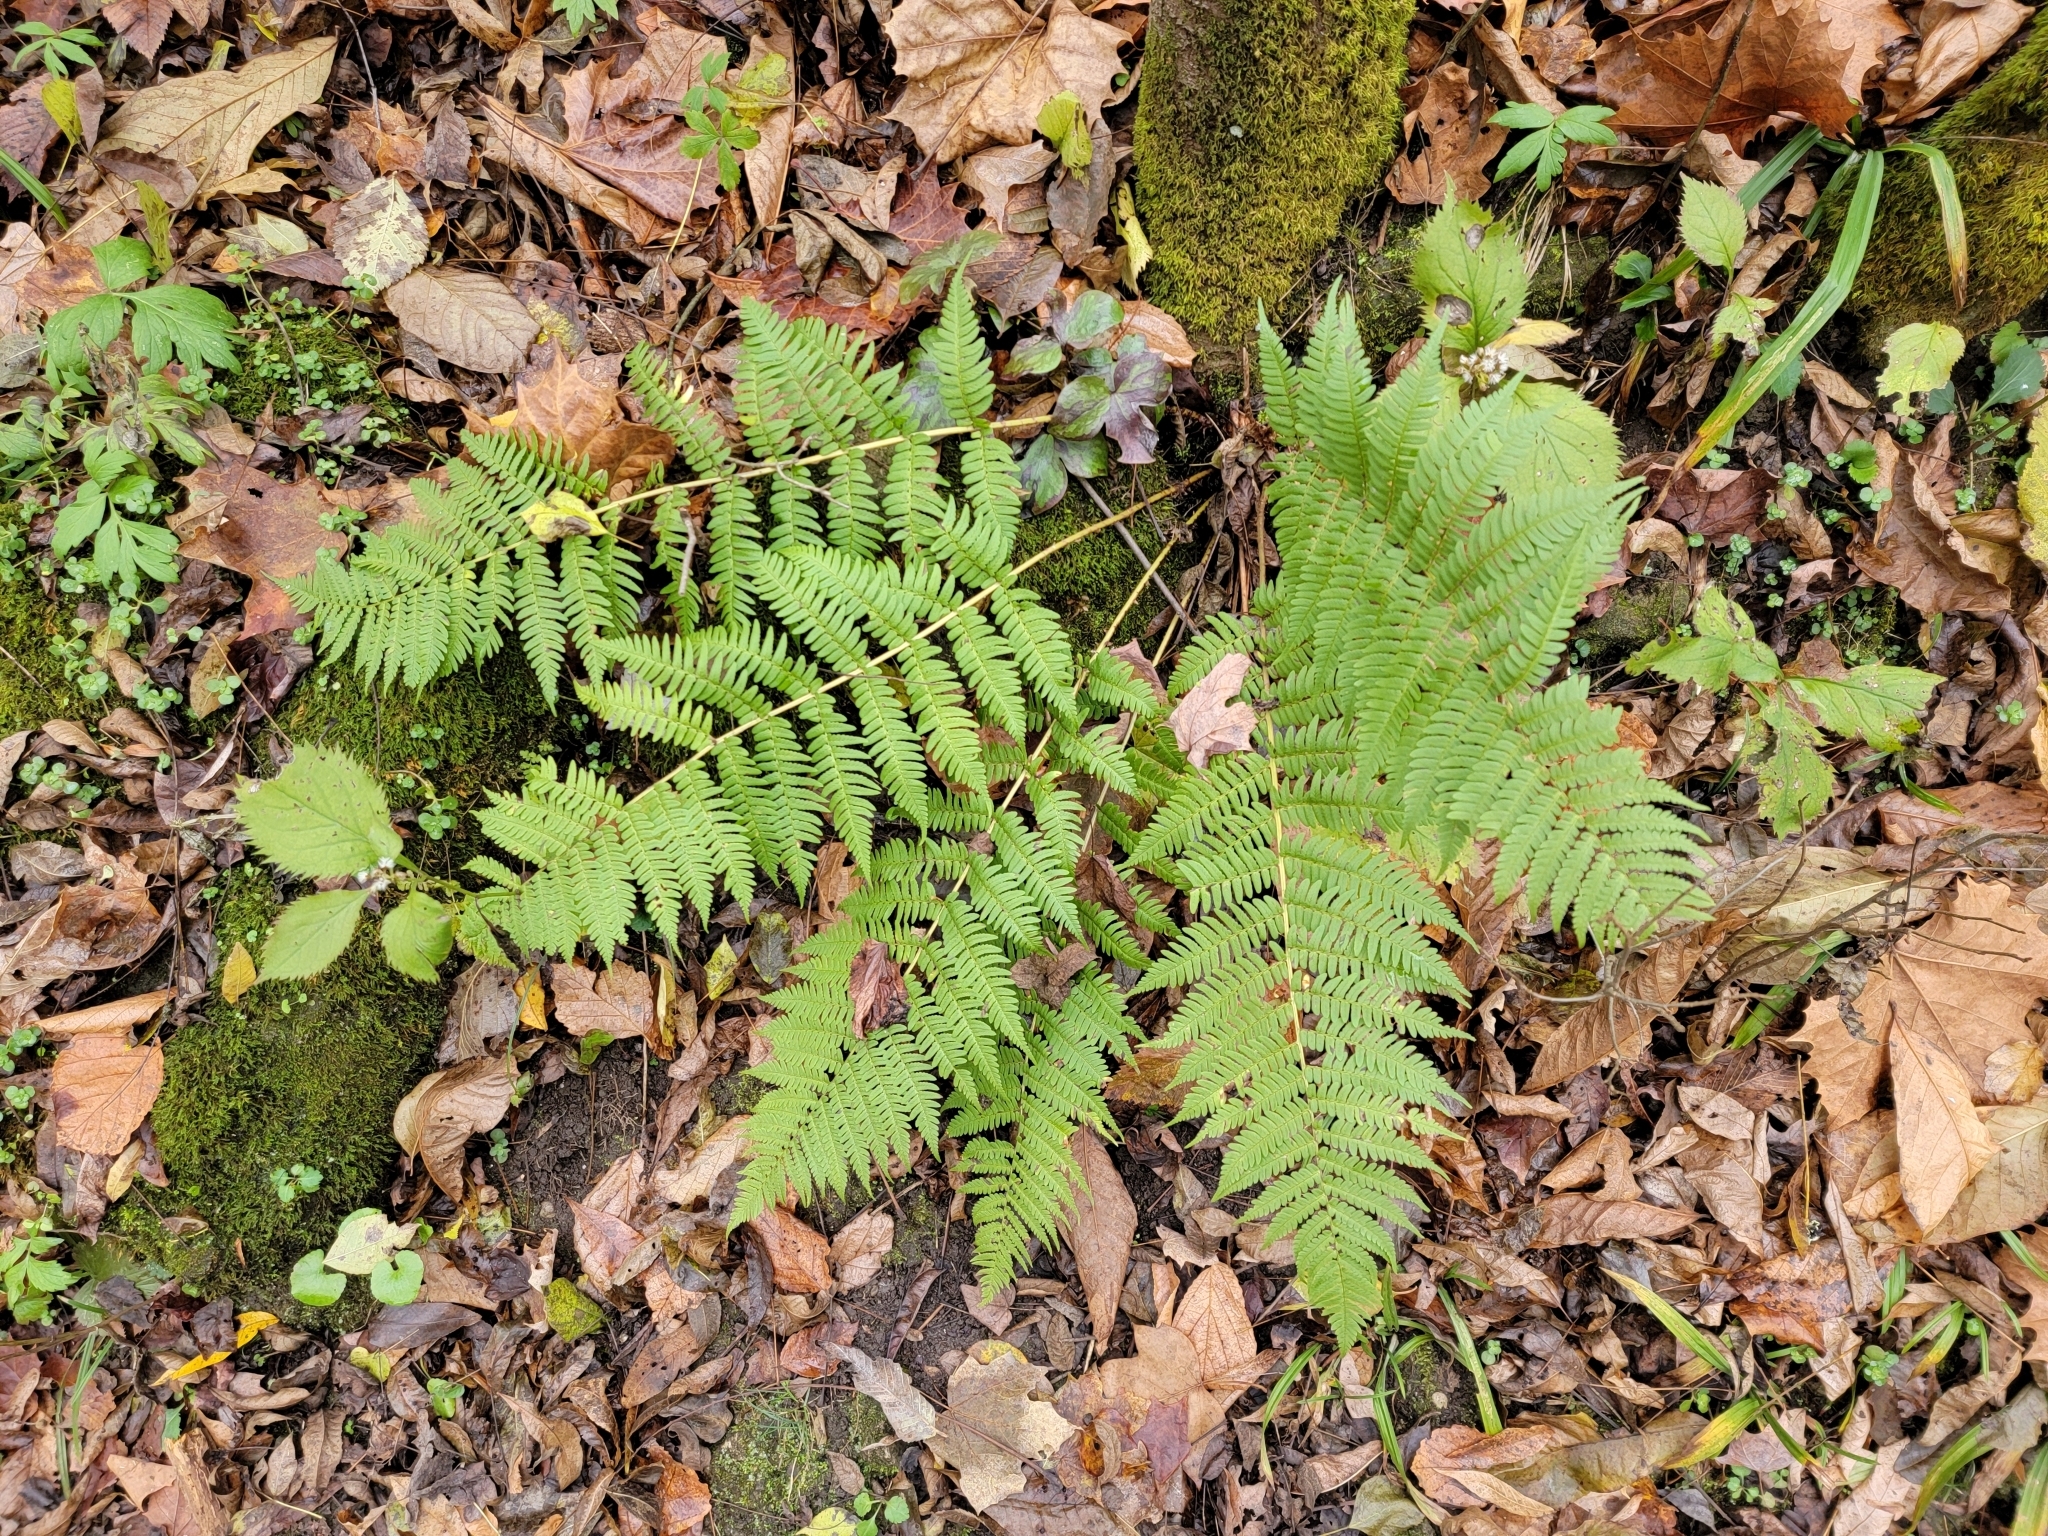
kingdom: Plantae
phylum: Tracheophyta
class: Polypodiopsida
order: Polypodiales
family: Dryopteridaceae
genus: Dryopteris
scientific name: Dryopteris marginalis
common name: Marginal wood fern
